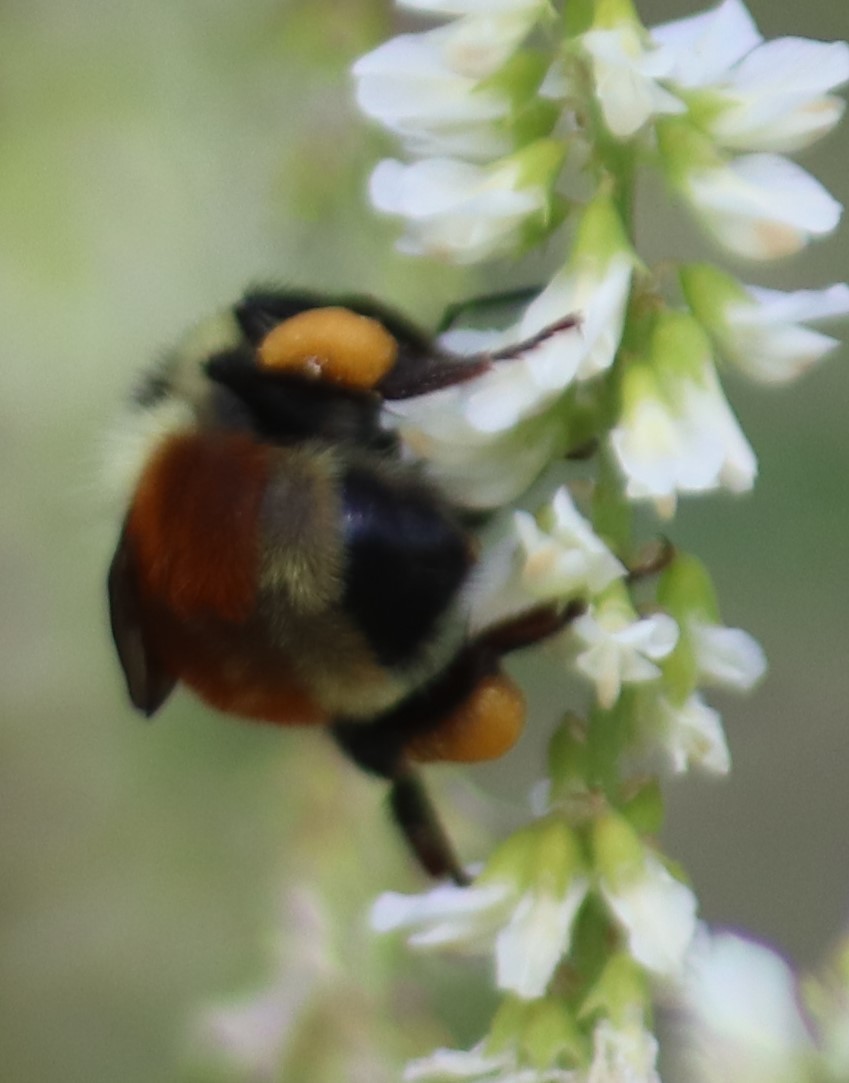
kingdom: Animalia
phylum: Arthropoda
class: Insecta
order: Hymenoptera
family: Apidae
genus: Bombus
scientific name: Bombus ternarius
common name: Tri-colored bumble bee
